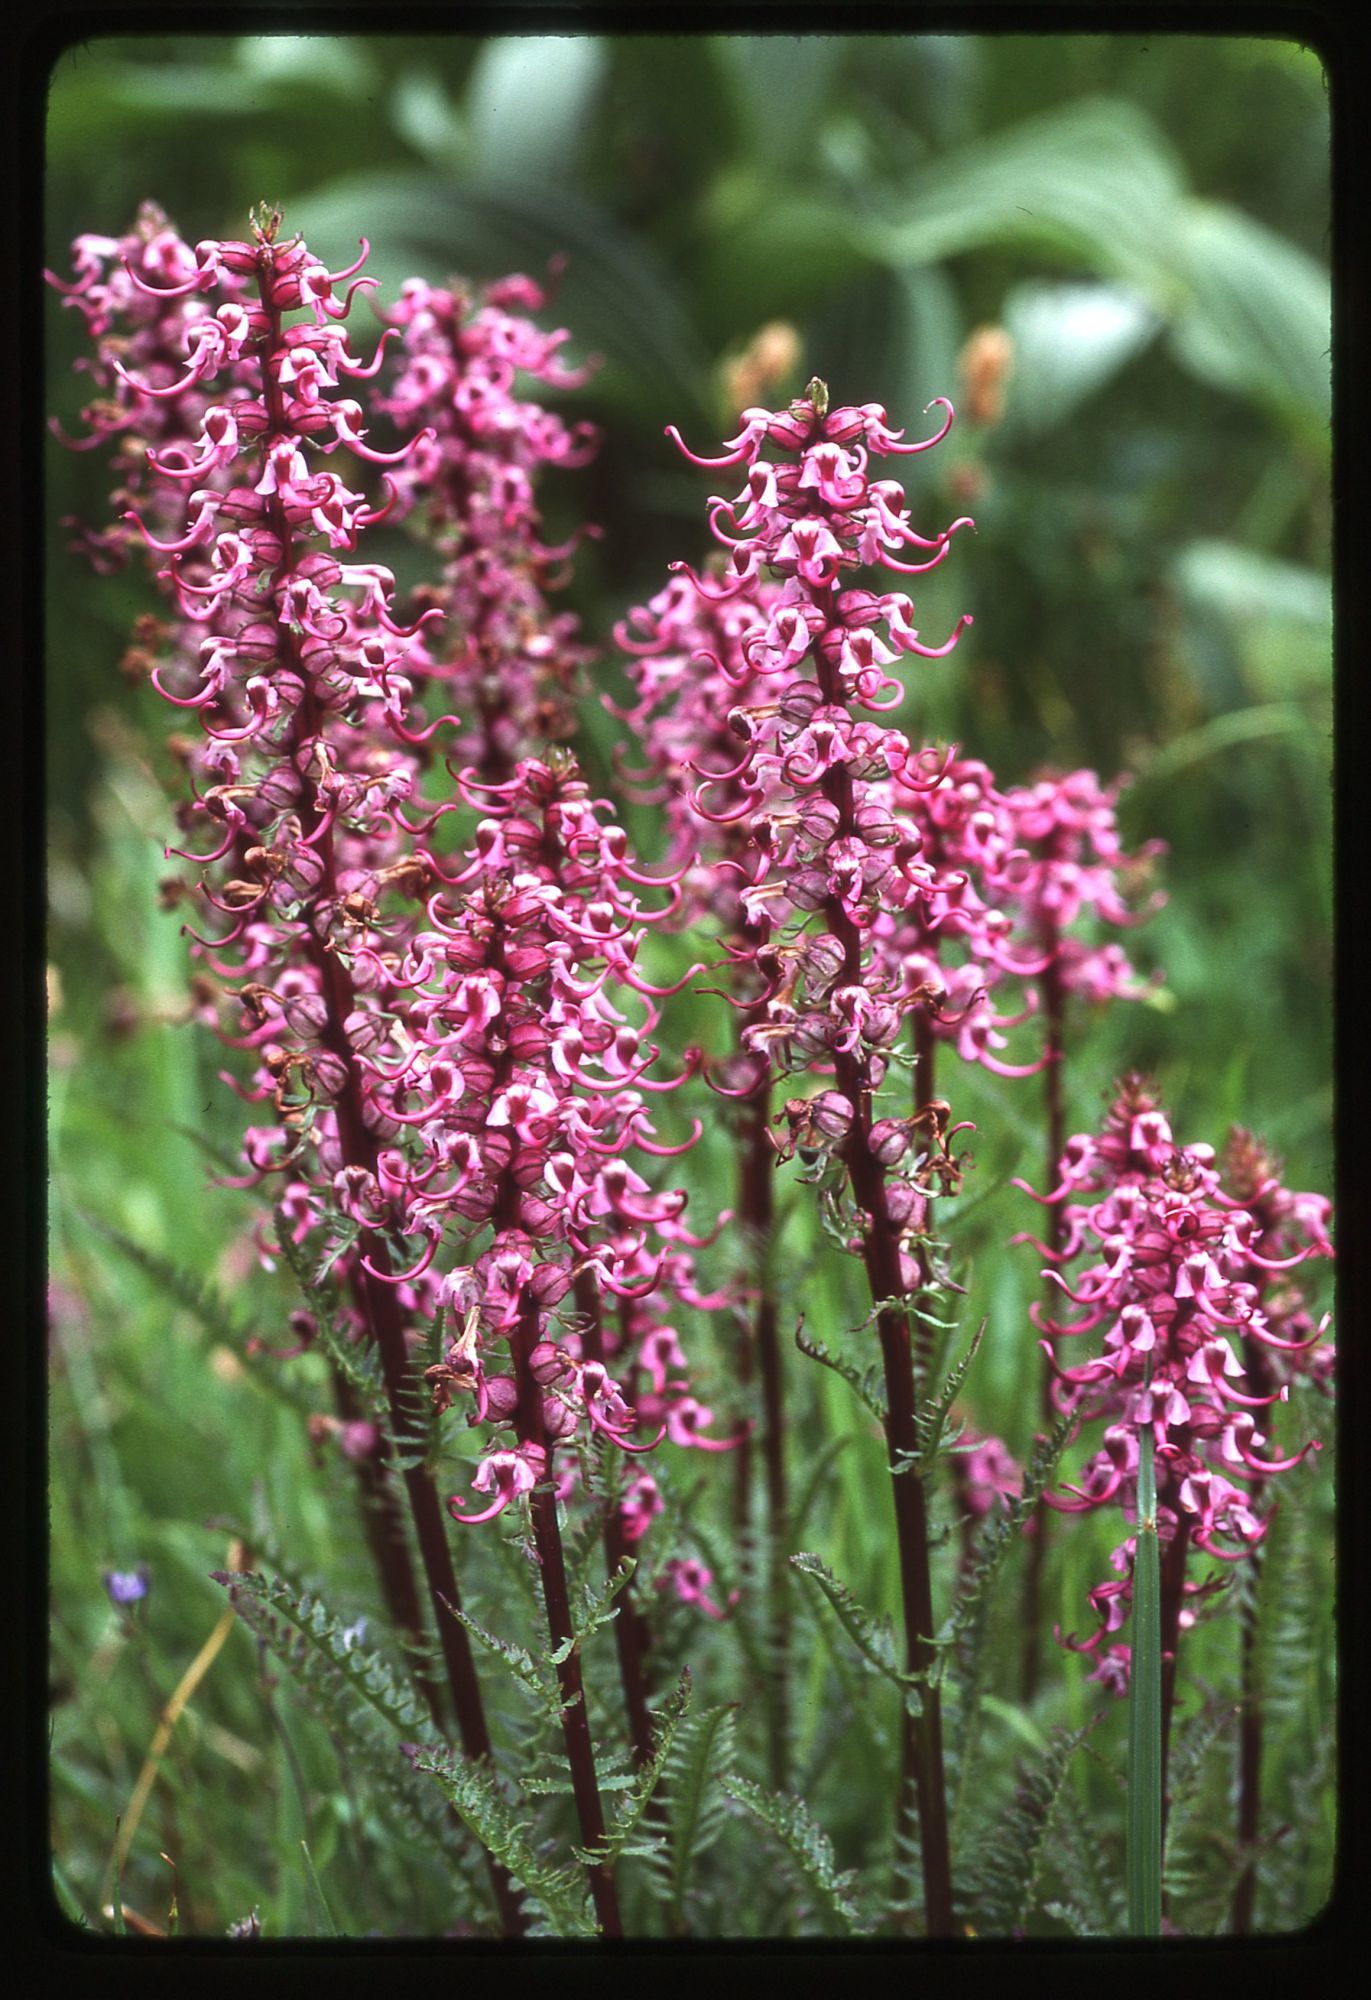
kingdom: Plantae
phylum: Tracheophyta
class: Magnoliopsida
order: Lamiales
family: Orobanchaceae
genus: Pedicularis
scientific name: Pedicularis groenlandica
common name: Elephant's-head
